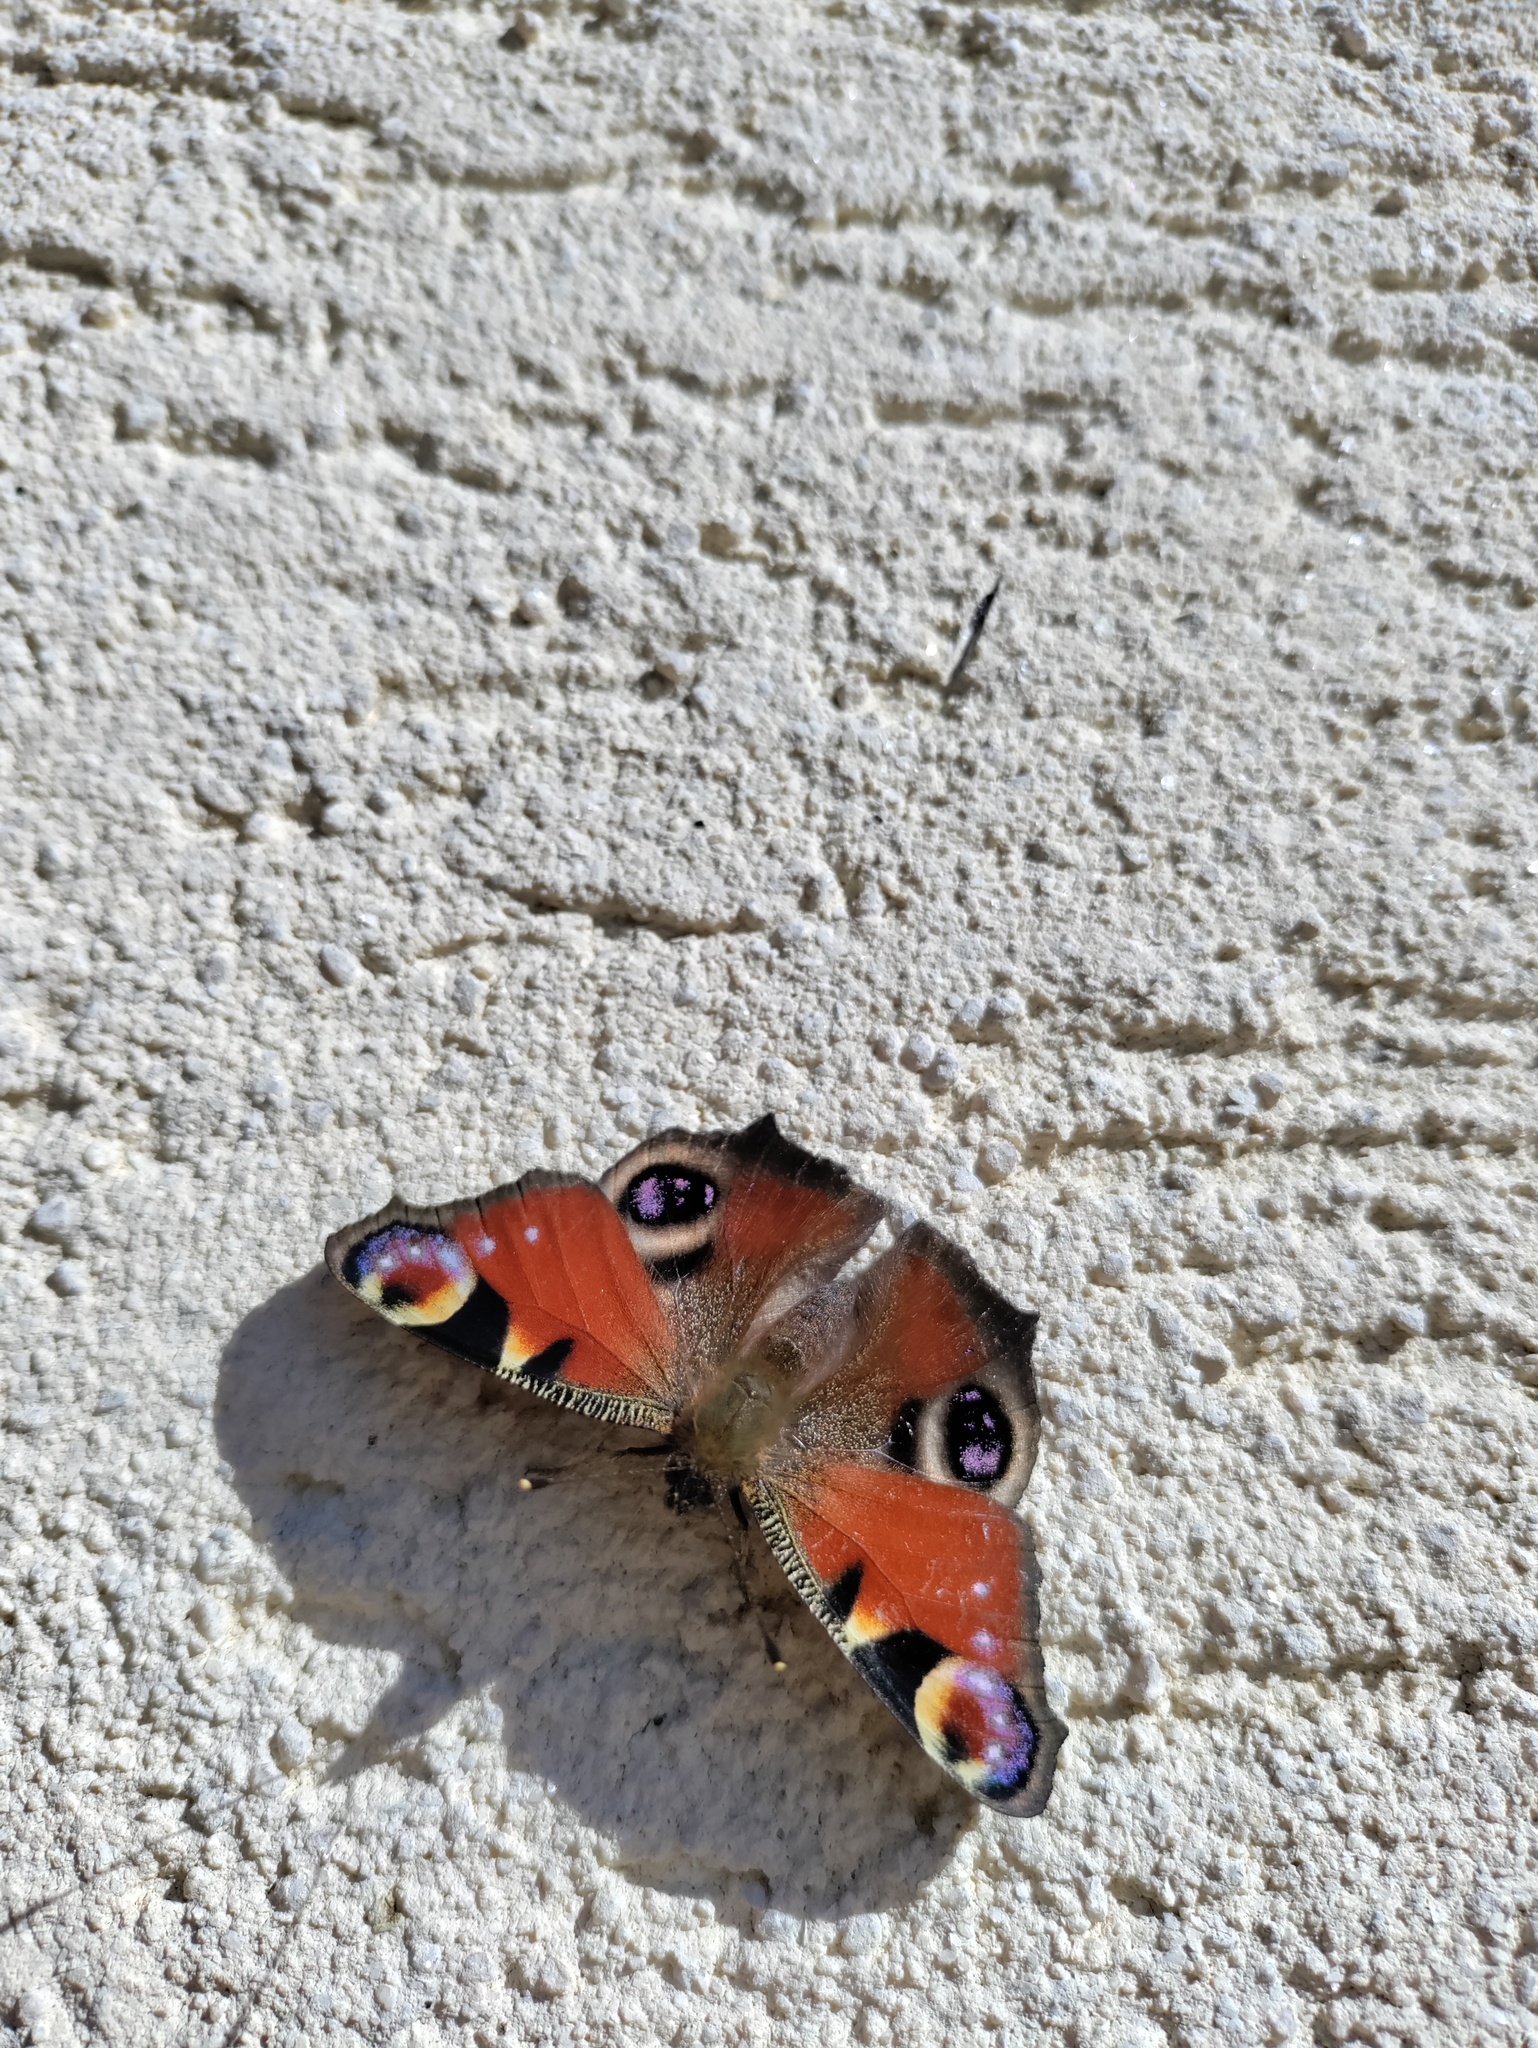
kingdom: Animalia
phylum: Arthropoda
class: Insecta
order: Lepidoptera
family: Nymphalidae
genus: Aglais
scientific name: Aglais io
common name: Peacock
